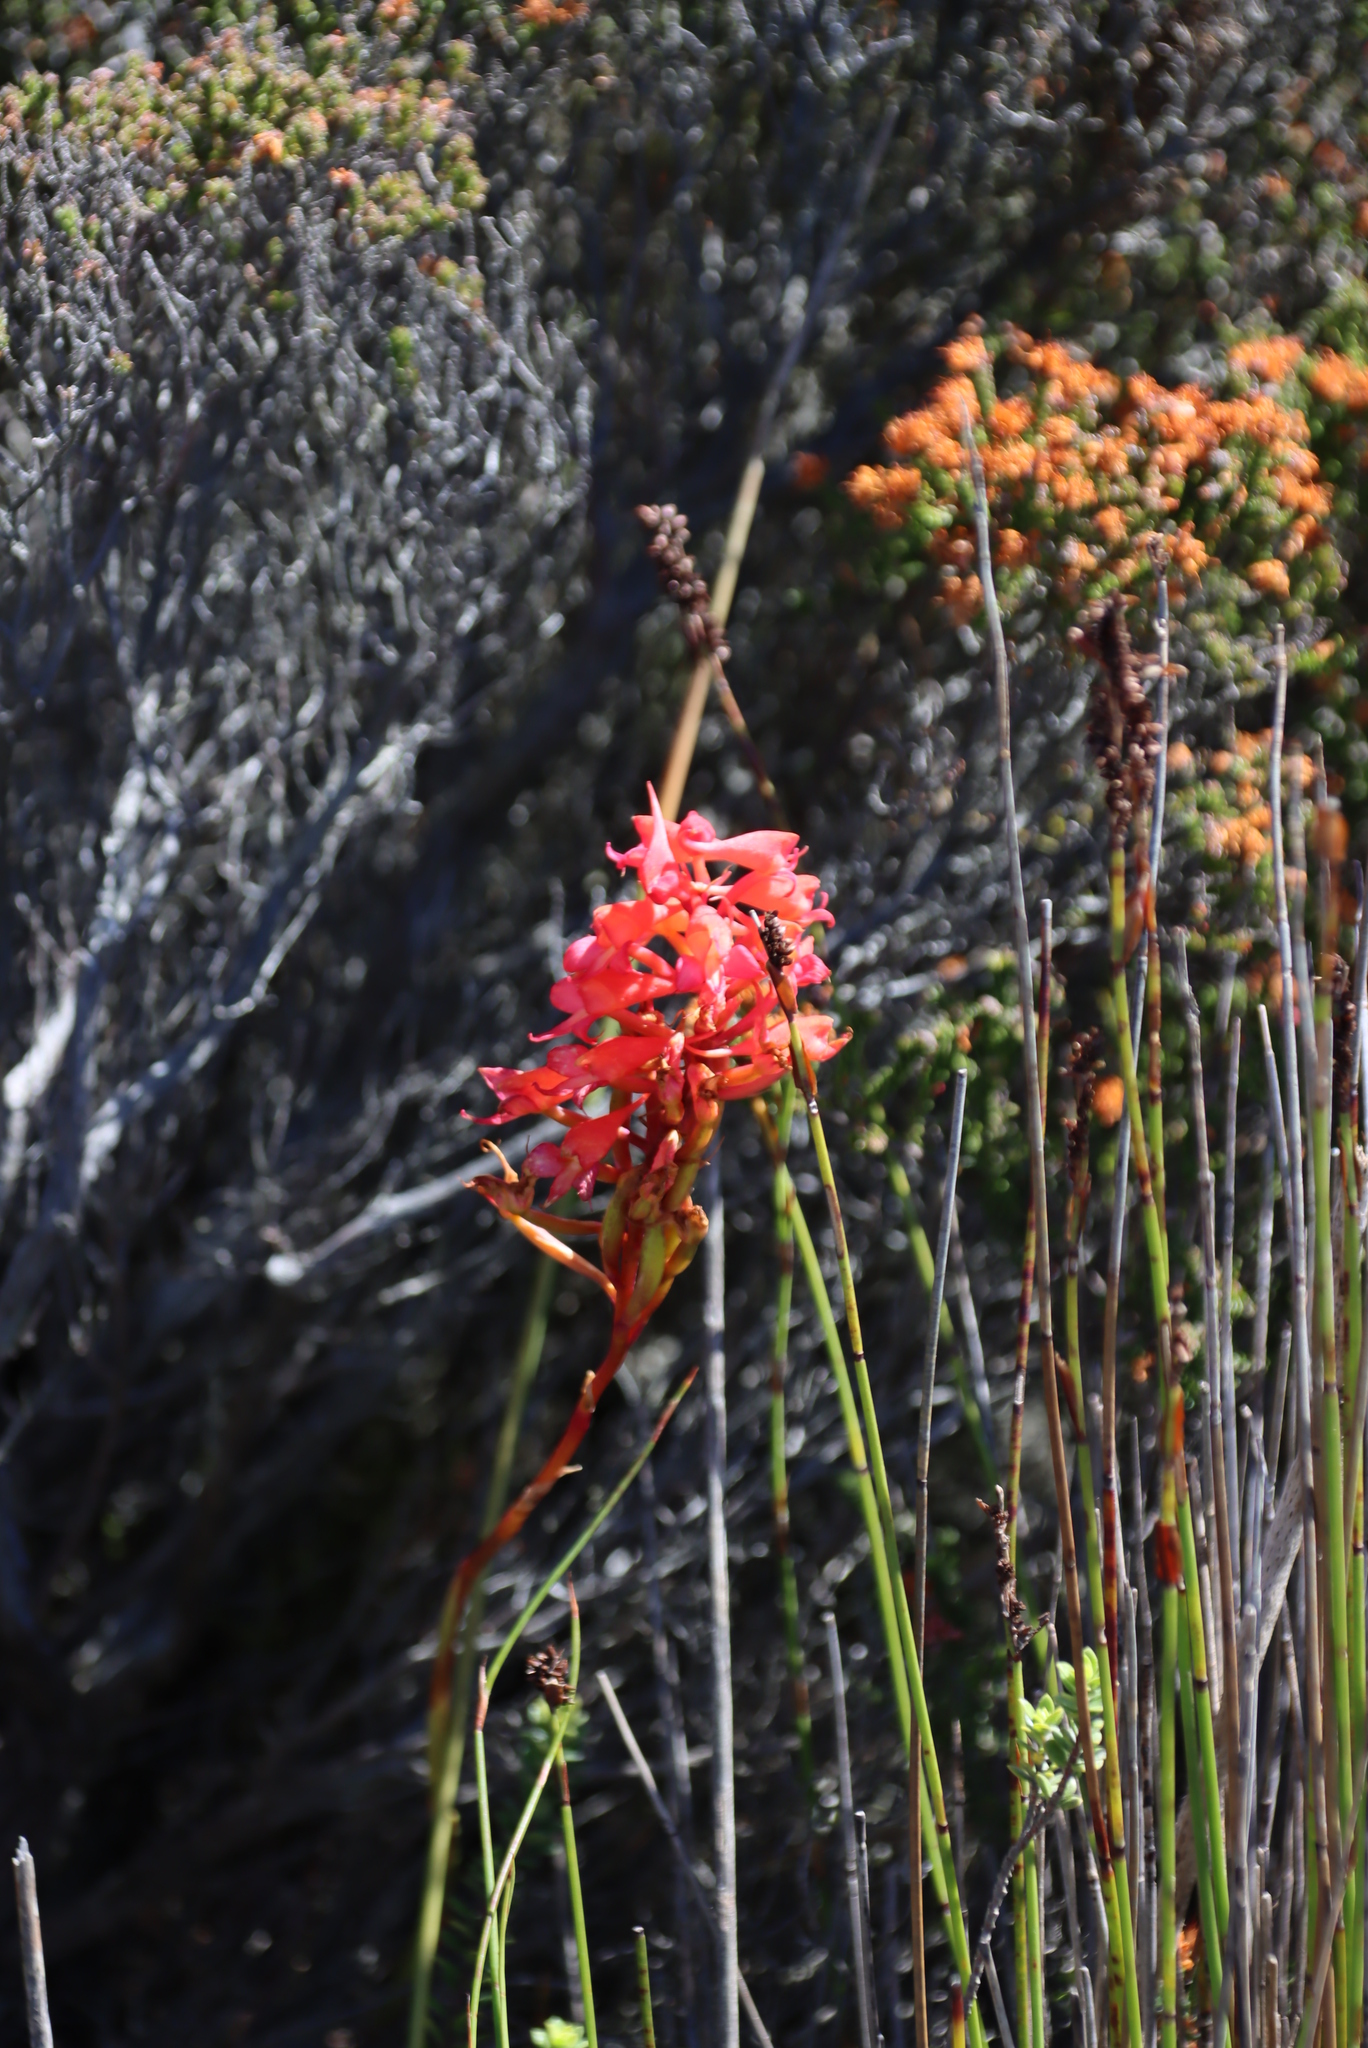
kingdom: Plantae
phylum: Tracheophyta
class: Liliopsida
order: Asparagales
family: Orchidaceae
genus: Disa
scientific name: Disa ferruginea
